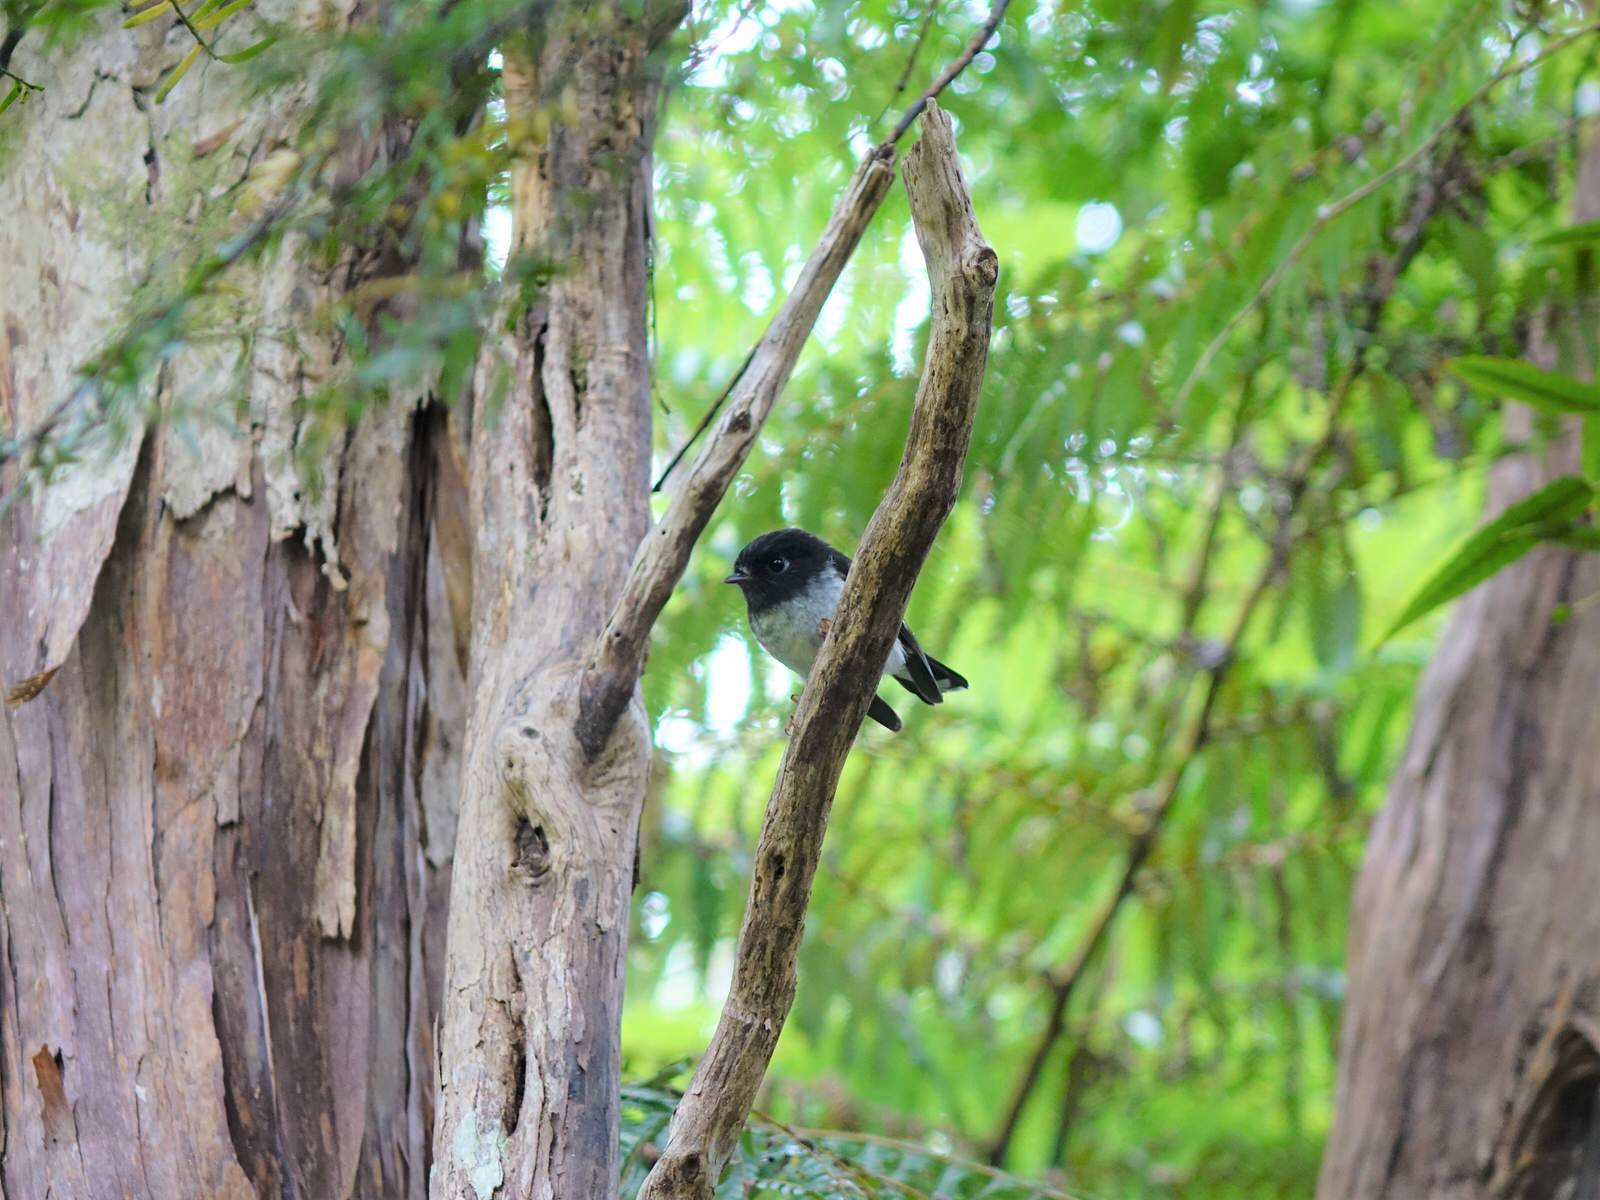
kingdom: Animalia
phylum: Chordata
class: Aves
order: Passeriformes
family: Petroicidae
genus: Petroica
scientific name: Petroica macrocephala
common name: Tomtit
